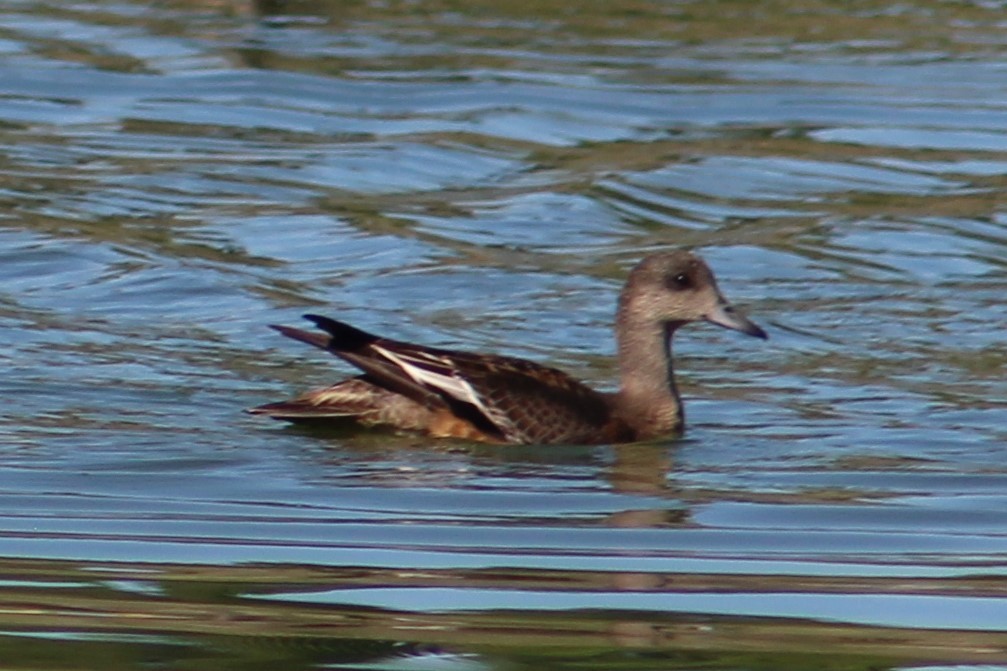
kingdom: Animalia
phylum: Chordata
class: Aves
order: Anseriformes
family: Anatidae
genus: Mareca
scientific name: Mareca americana
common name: American wigeon
